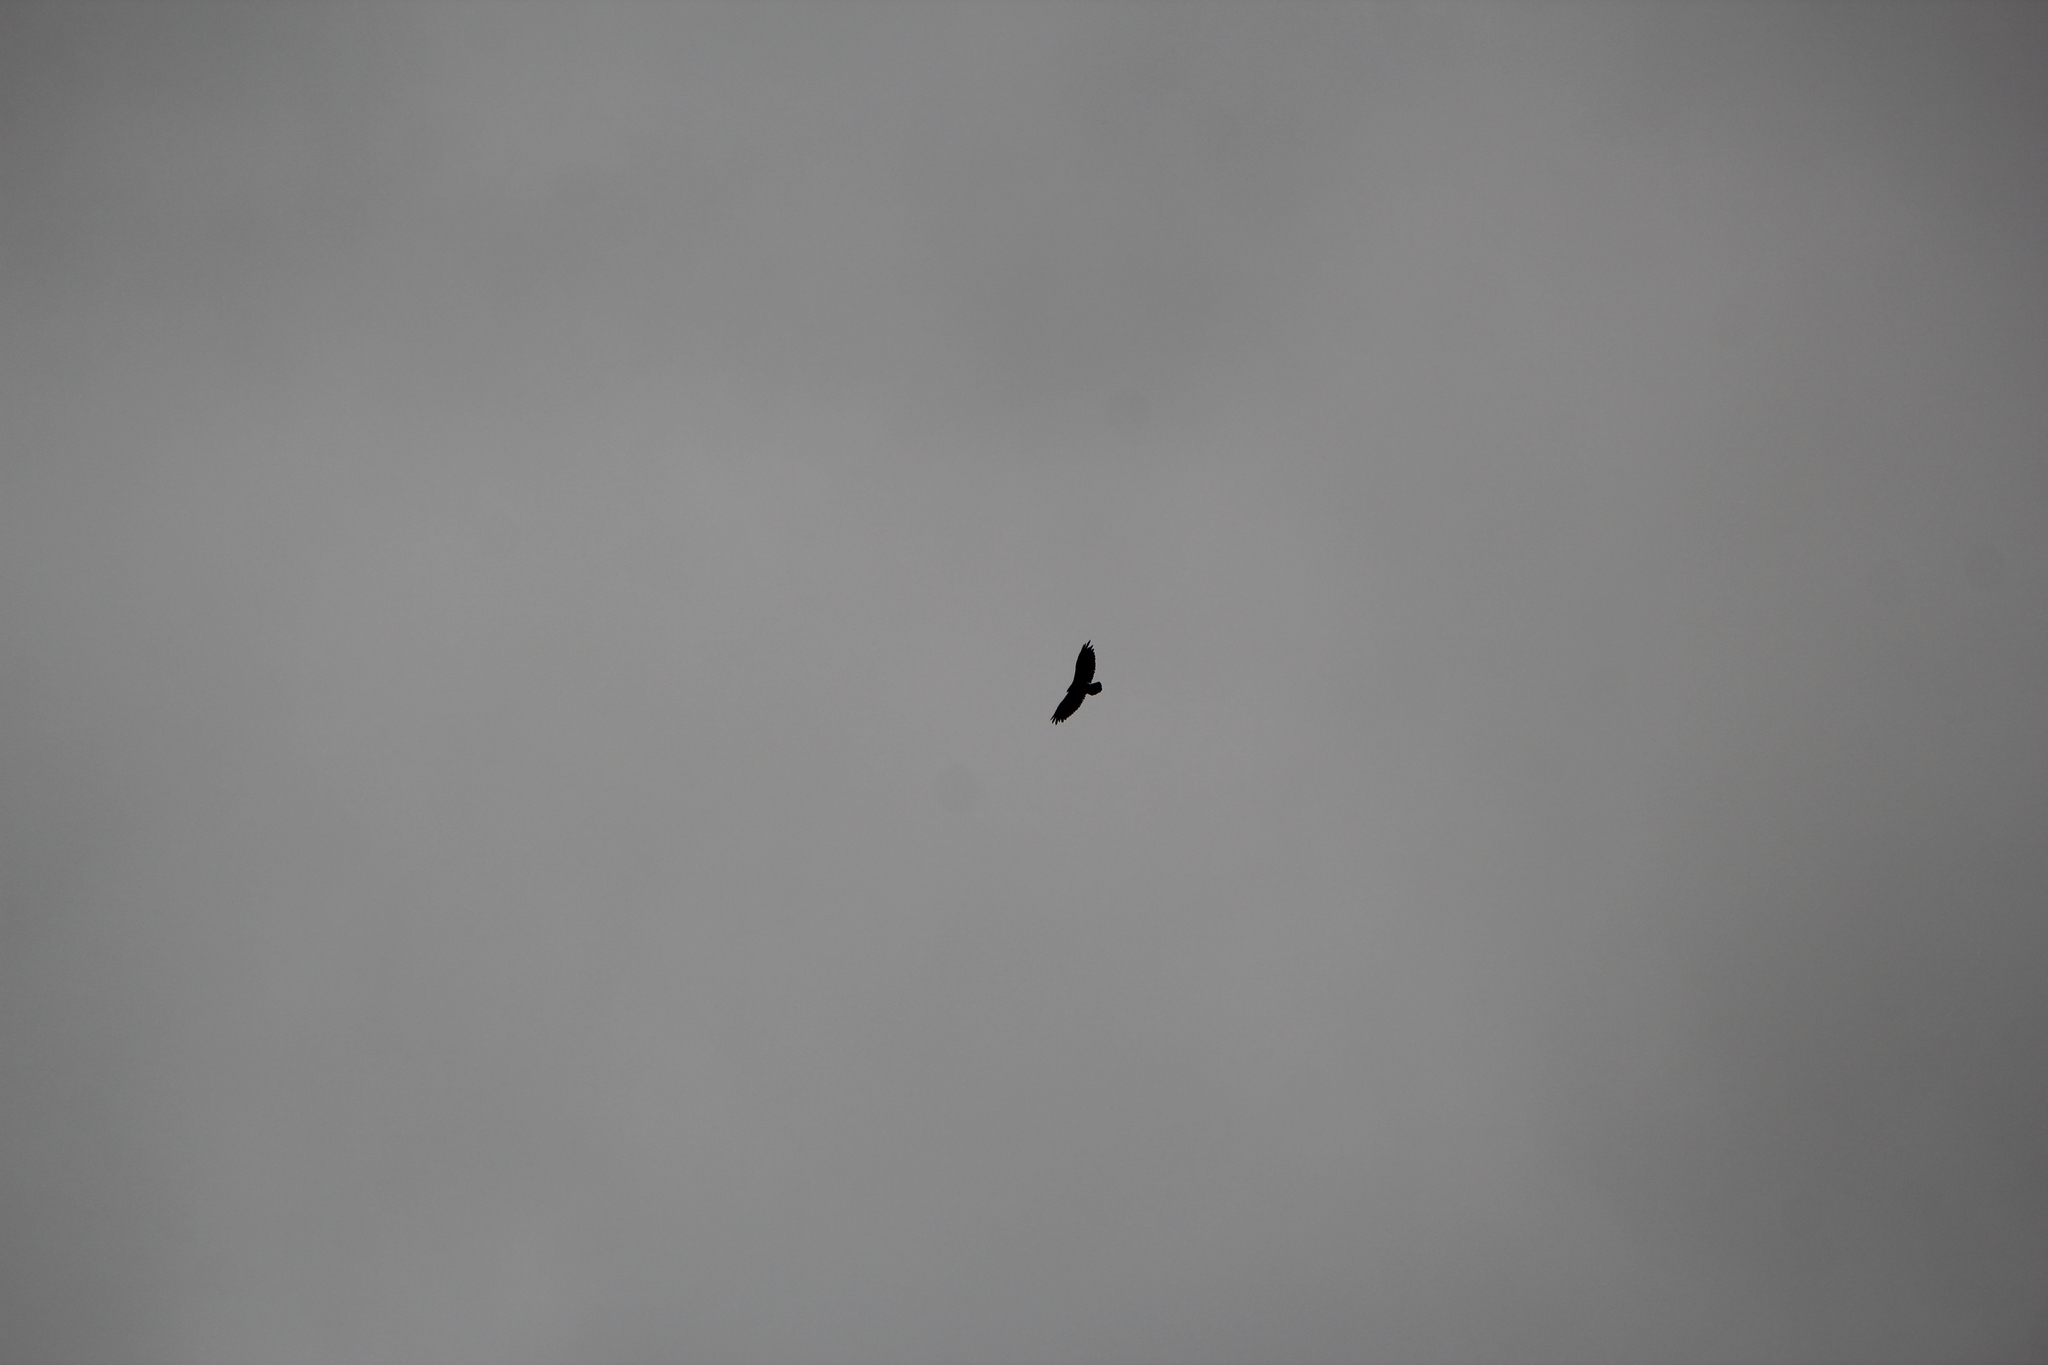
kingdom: Animalia
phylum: Chordata
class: Aves
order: Accipitriformes
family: Cathartidae
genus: Cathartes
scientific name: Cathartes aura
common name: Turkey vulture
